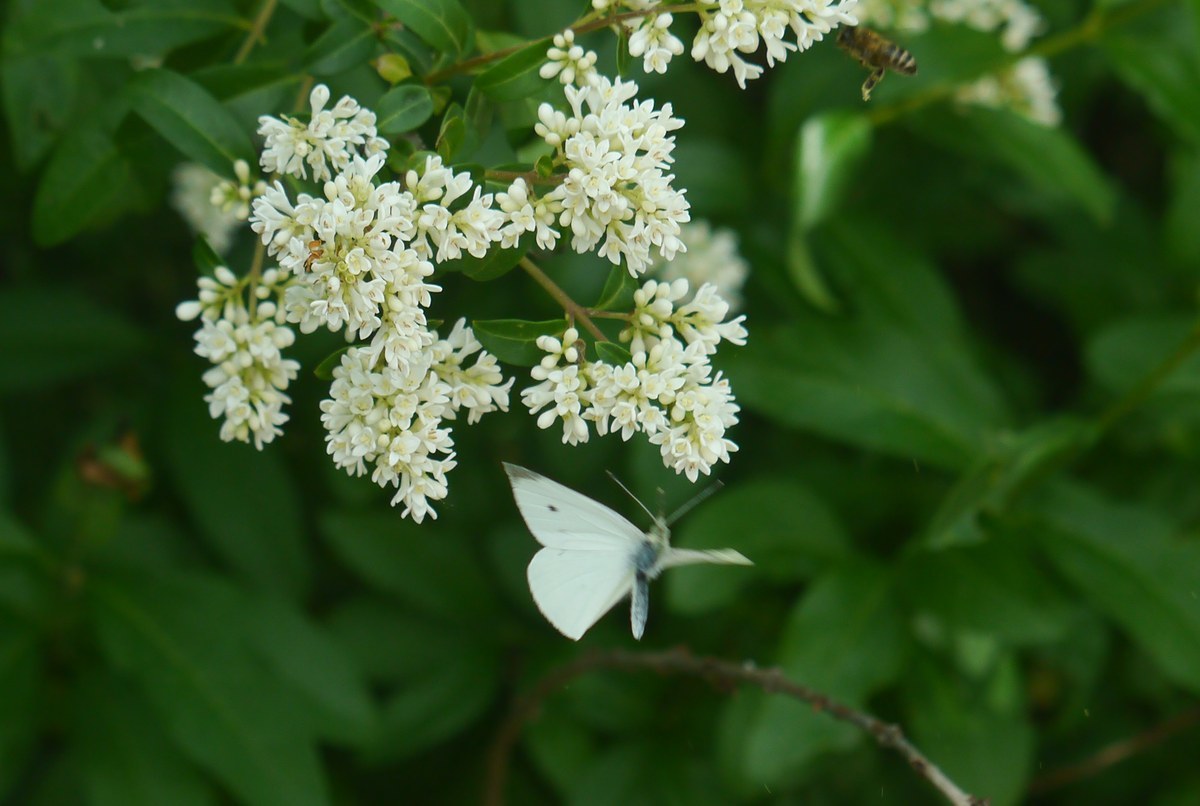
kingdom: Animalia
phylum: Arthropoda
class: Insecta
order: Lepidoptera
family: Pieridae
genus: Pieris
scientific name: Pieris rapae
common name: Small white
